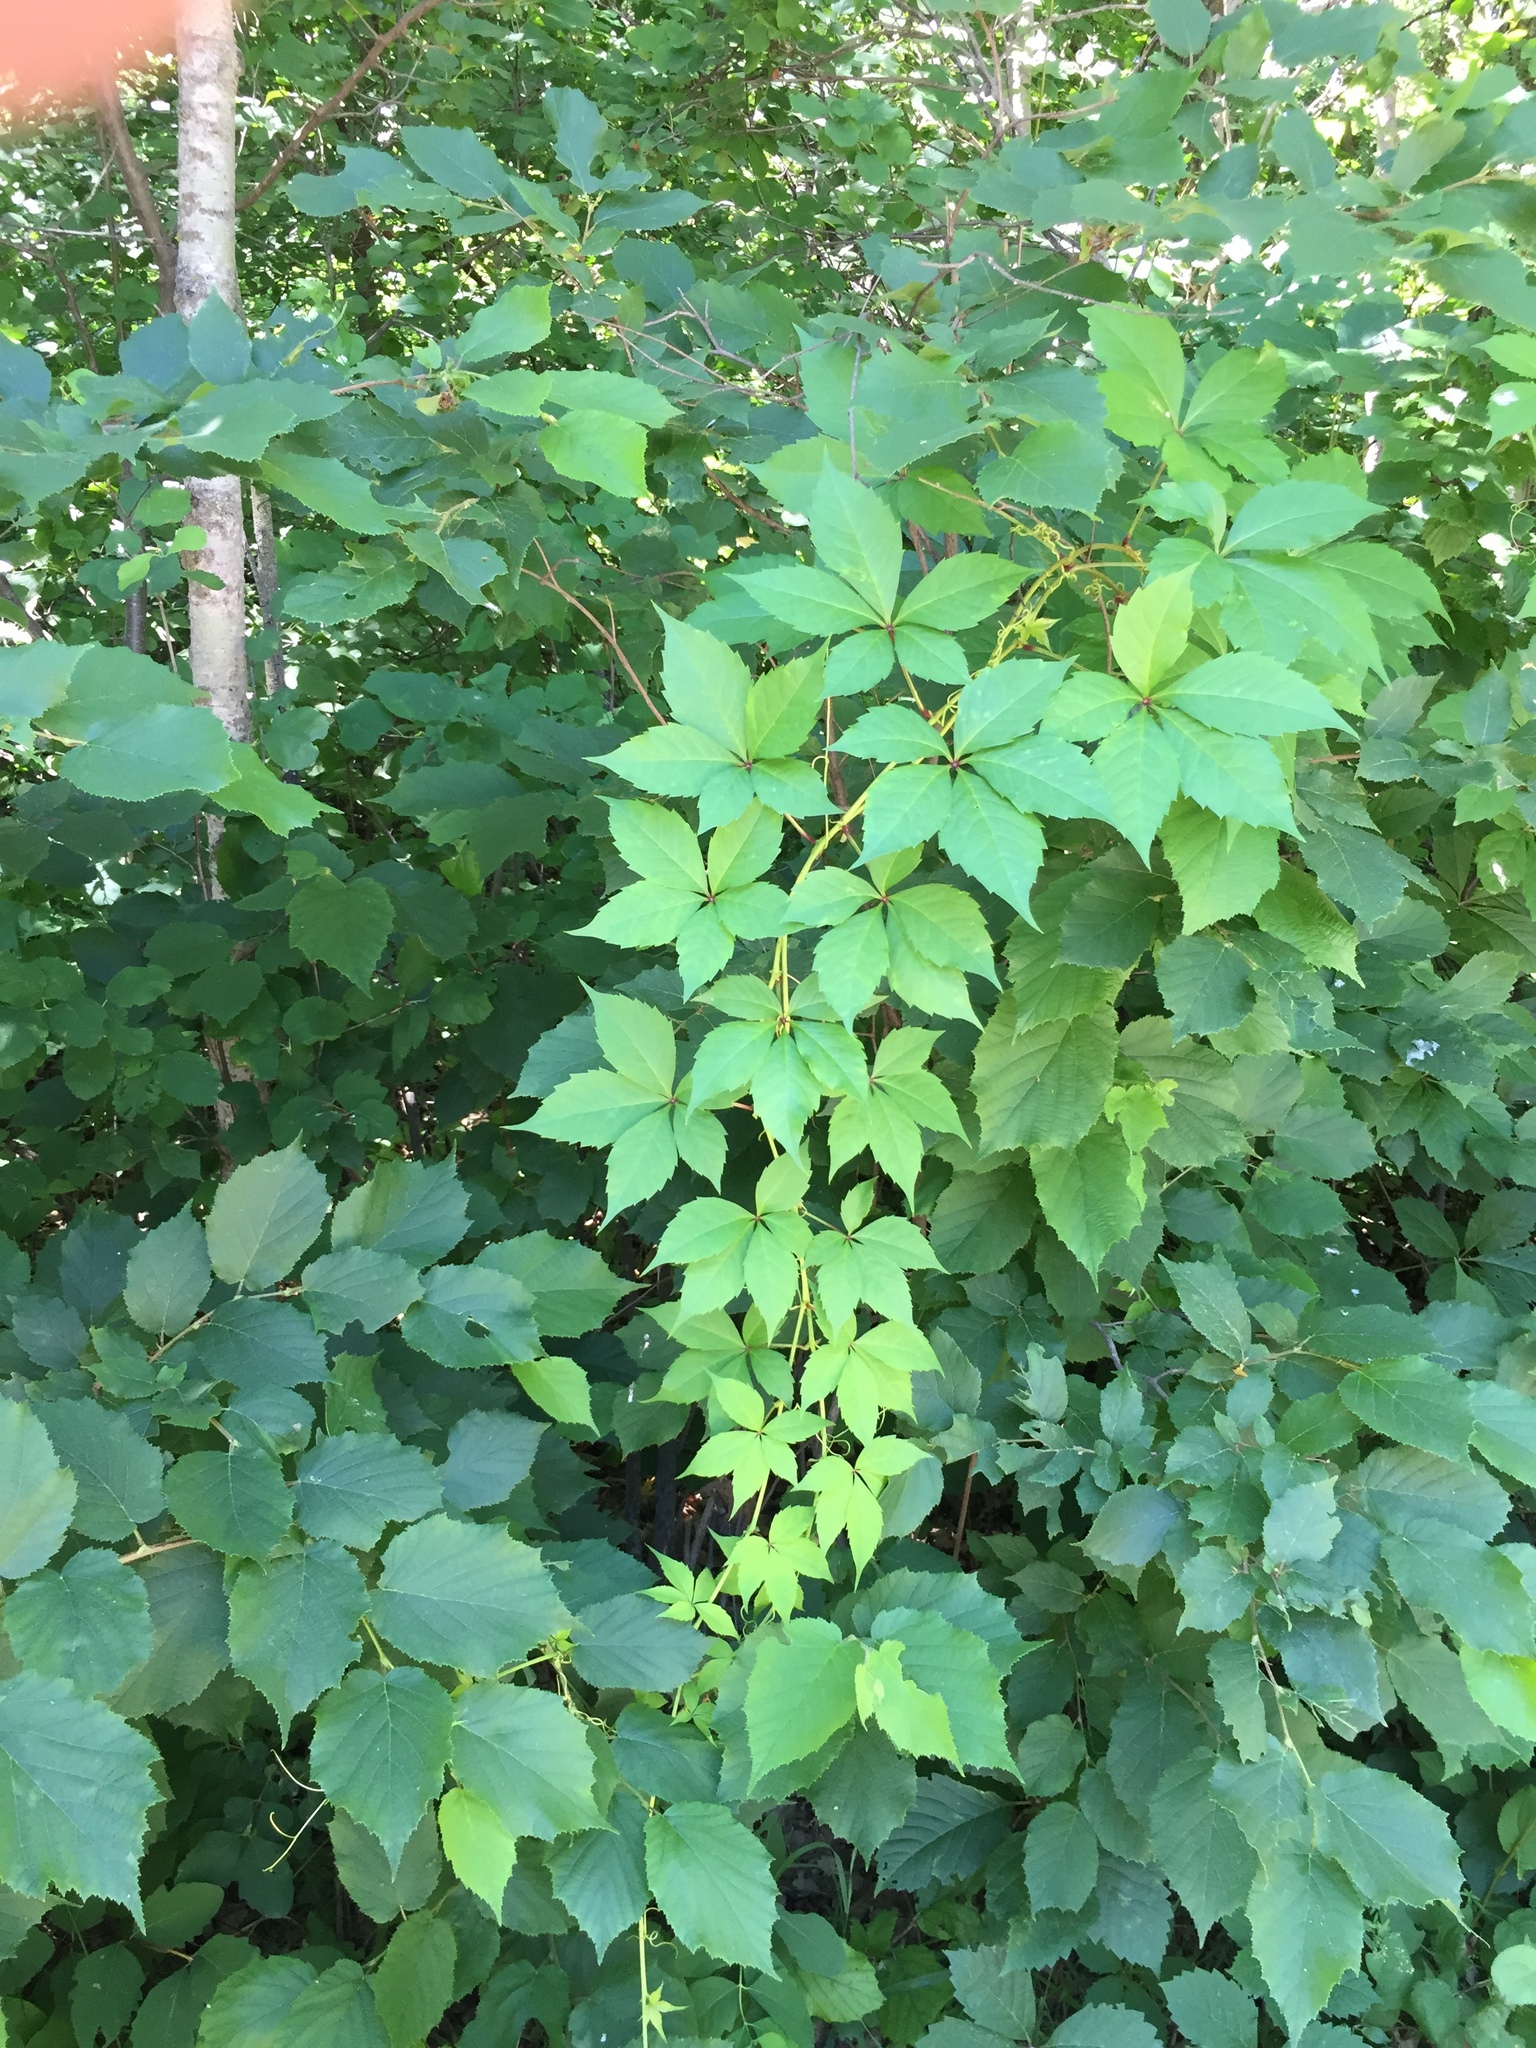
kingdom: Plantae
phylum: Tracheophyta
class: Magnoliopsida
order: Vitales
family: Vitaceae
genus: Parthenocissus
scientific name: Parthenocissus quinquefolia
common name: Virginia-creeper
